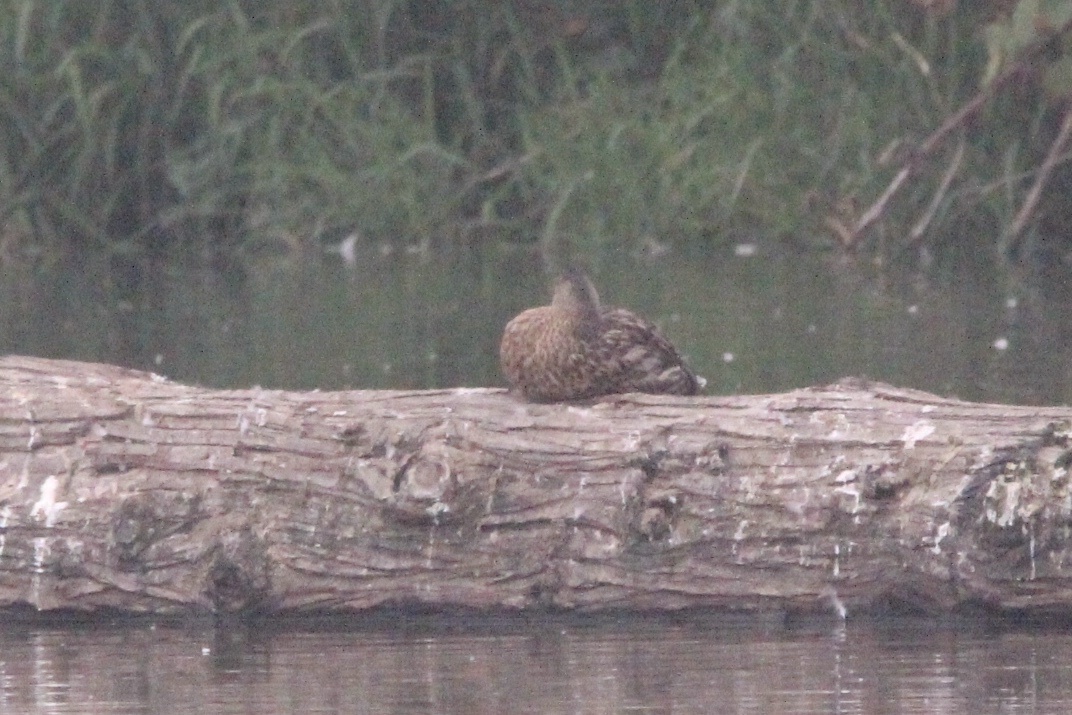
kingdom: Animalia
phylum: Chordata
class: Aves
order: Anseriformes
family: Anatidae
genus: Anas
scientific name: Anas platyrhynchos
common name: Mallard
